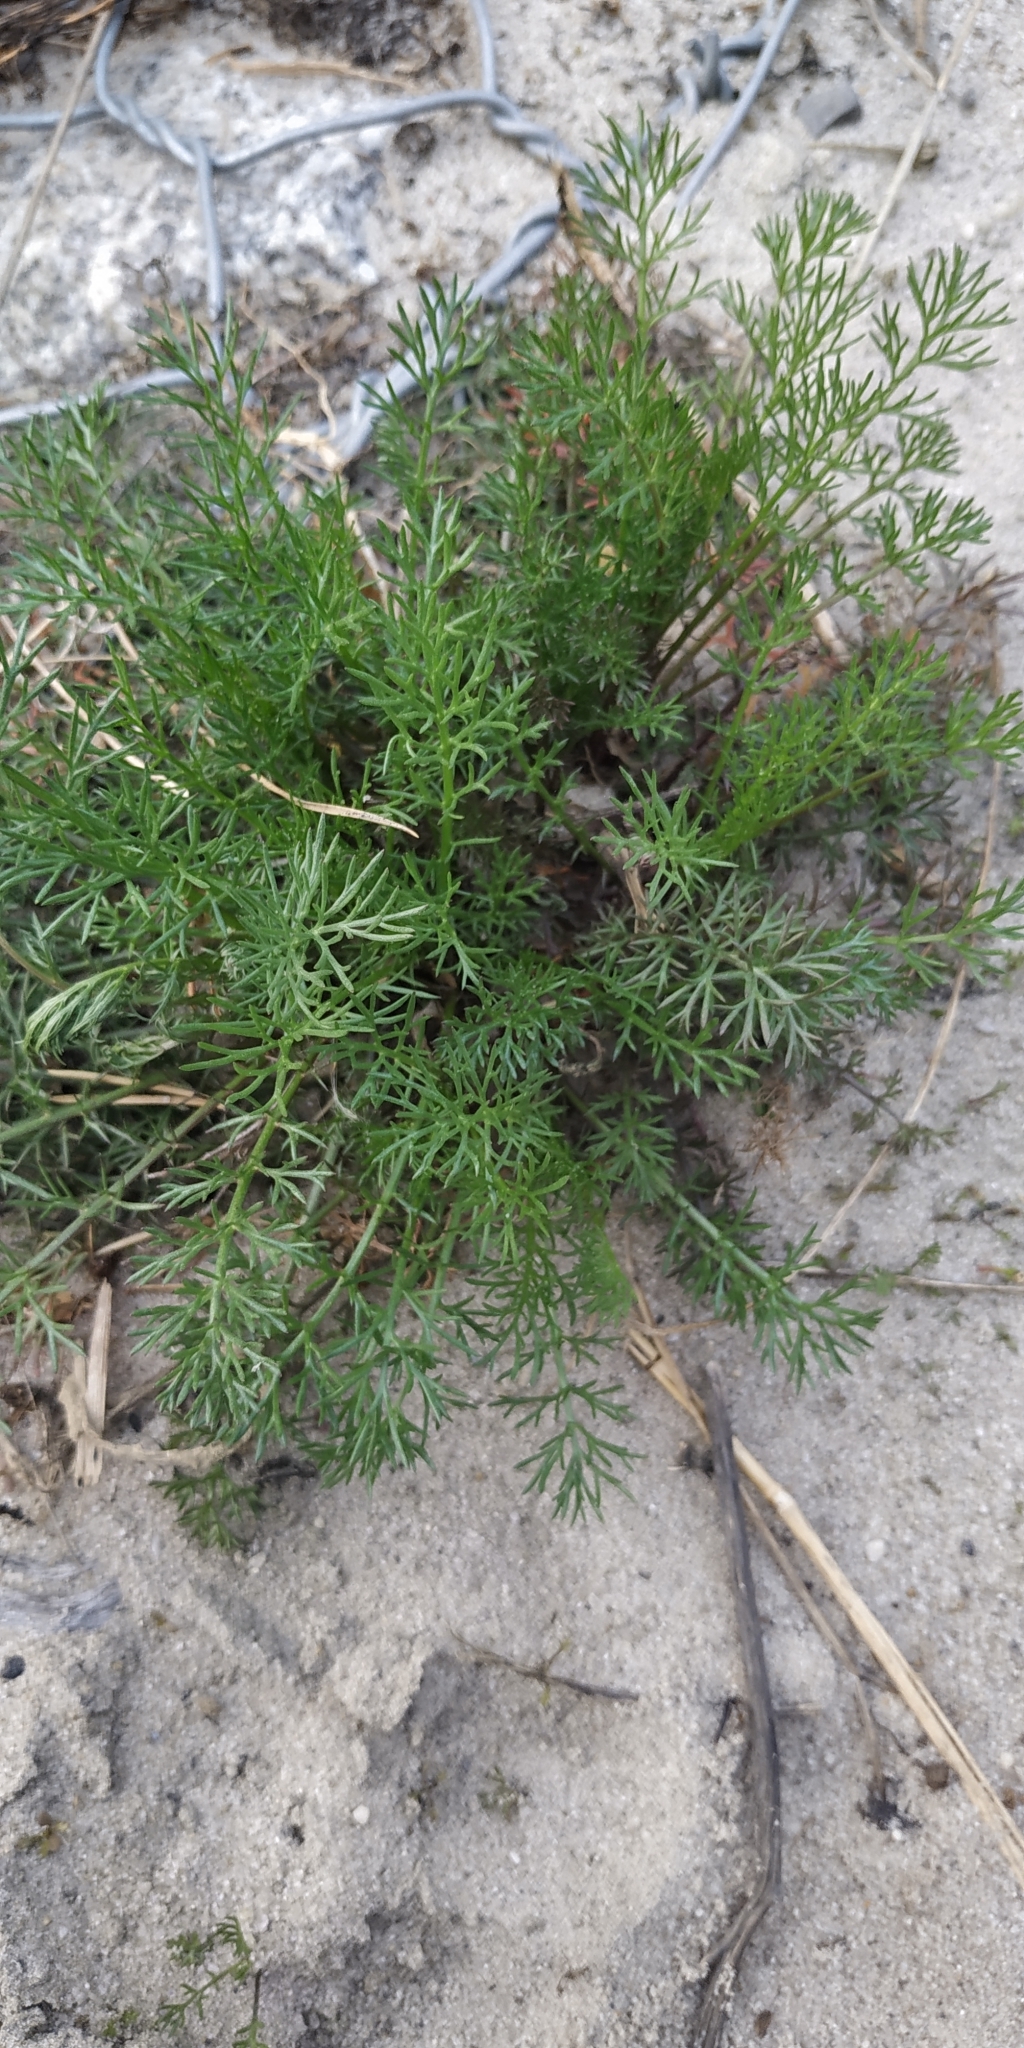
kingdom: Plantae
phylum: Tracheophyta
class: Magnoliopsida
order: Asterales
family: Asteraceae
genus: Tripleurospermum
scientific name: Tripleurospermum inodorum
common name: Scentless mayweed
